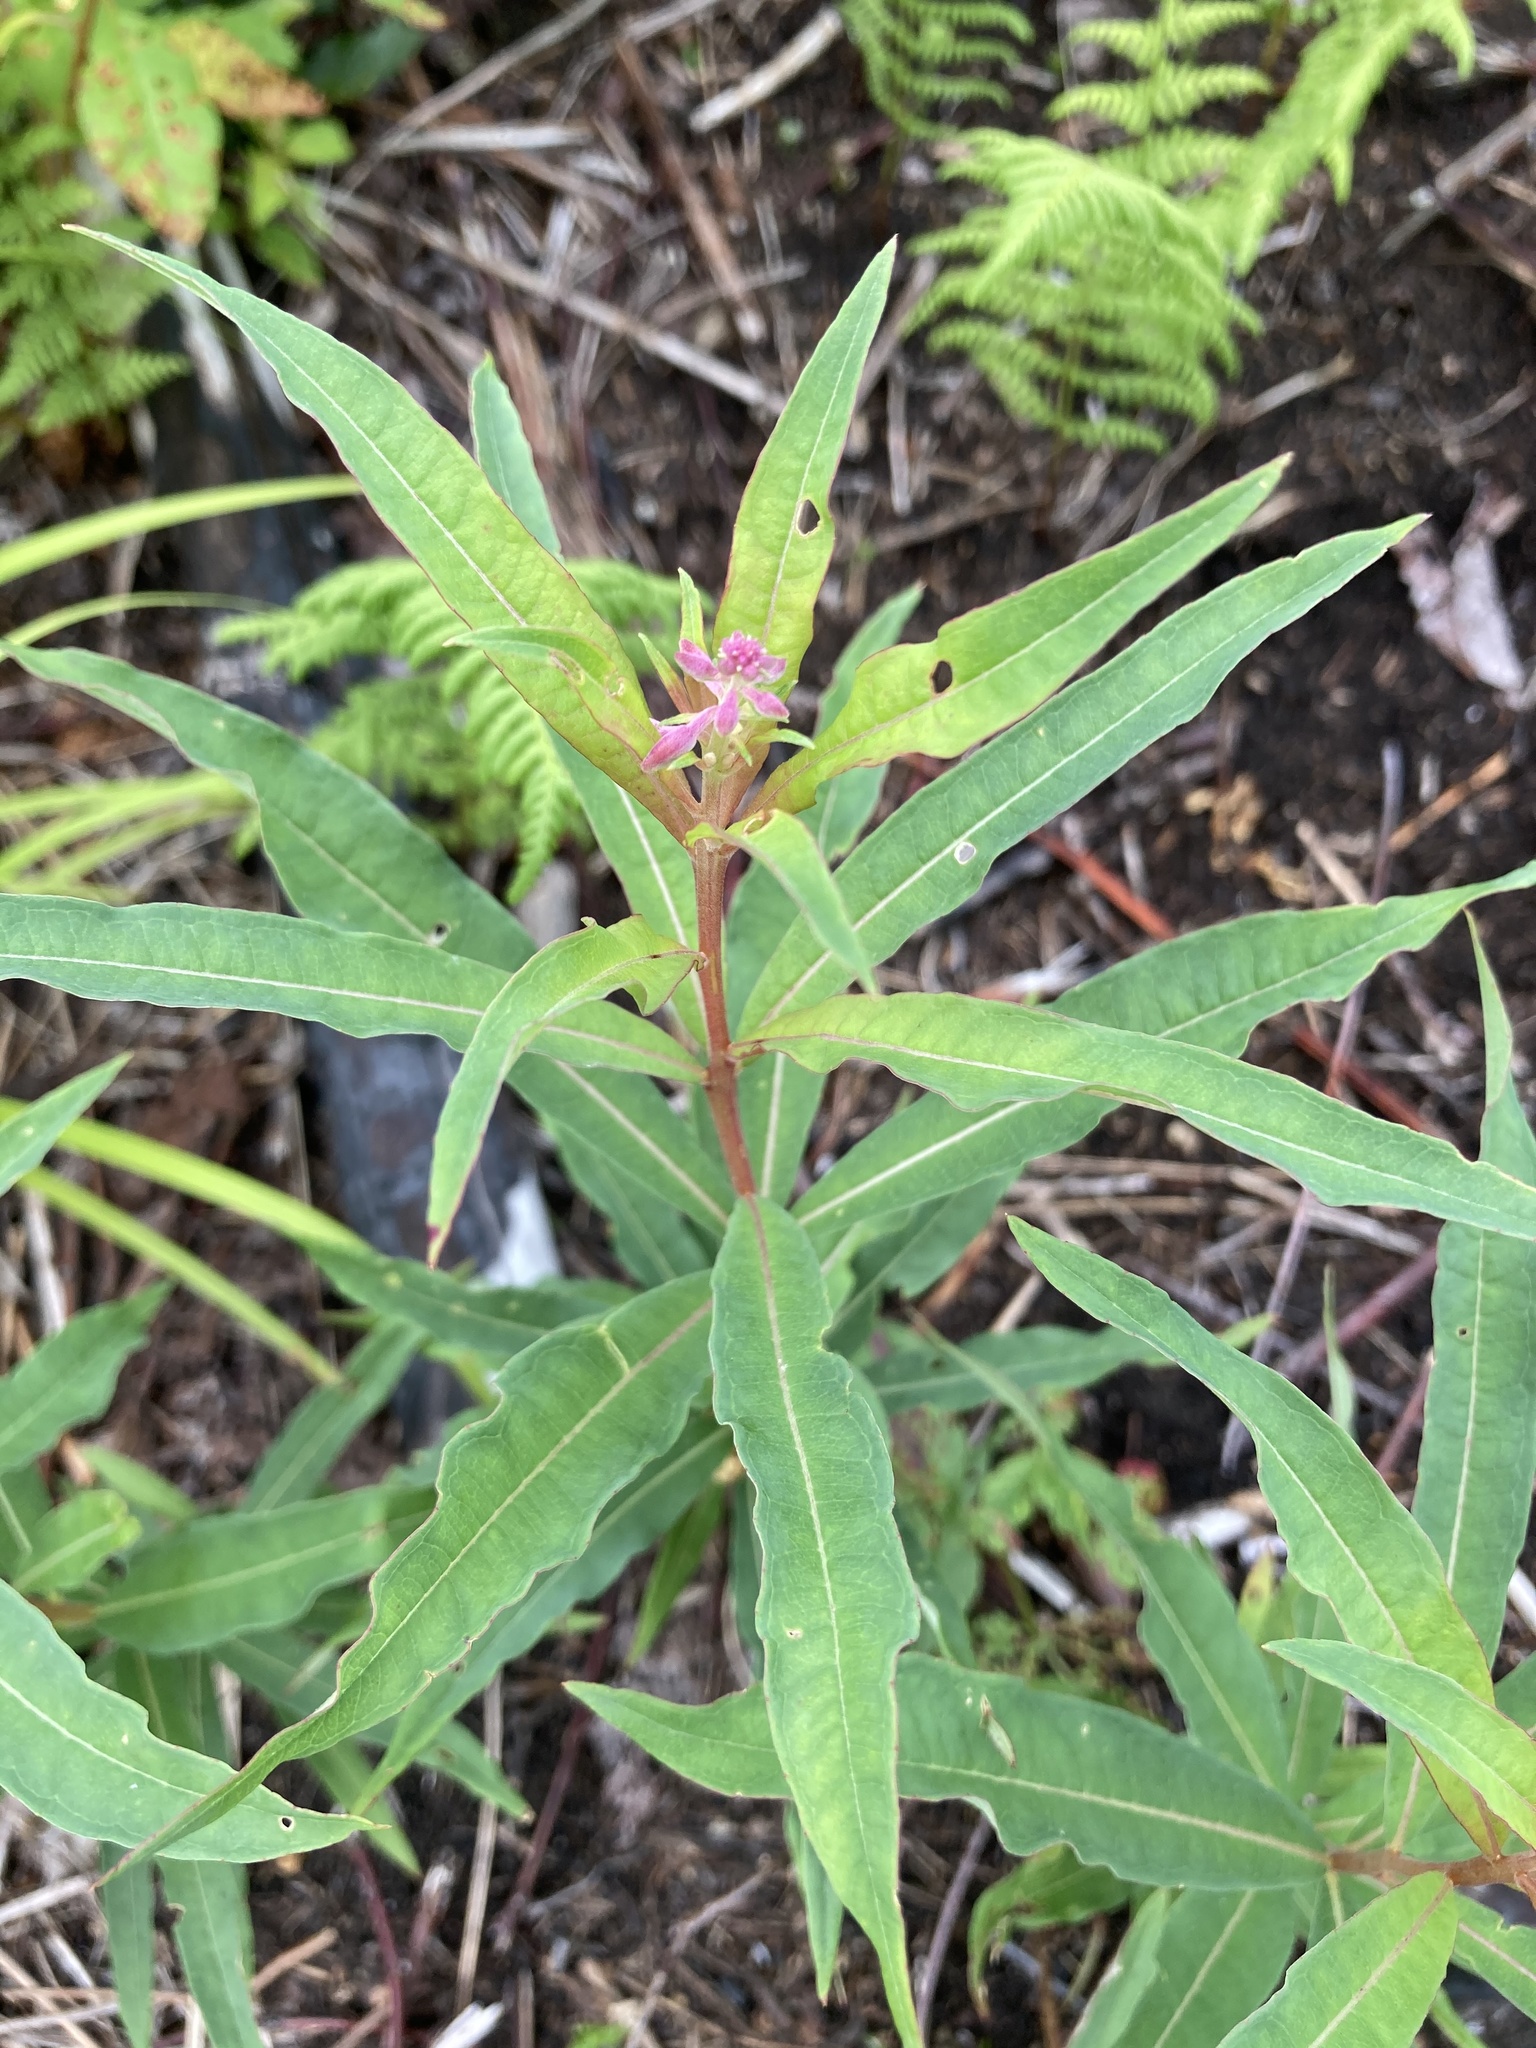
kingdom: Plantae
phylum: Tracheophyta
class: Magnoliopsida
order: Myrtales
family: Onagraceae
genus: Chamaenerion
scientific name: Chamaenerion angustifolium
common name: Fireweed
